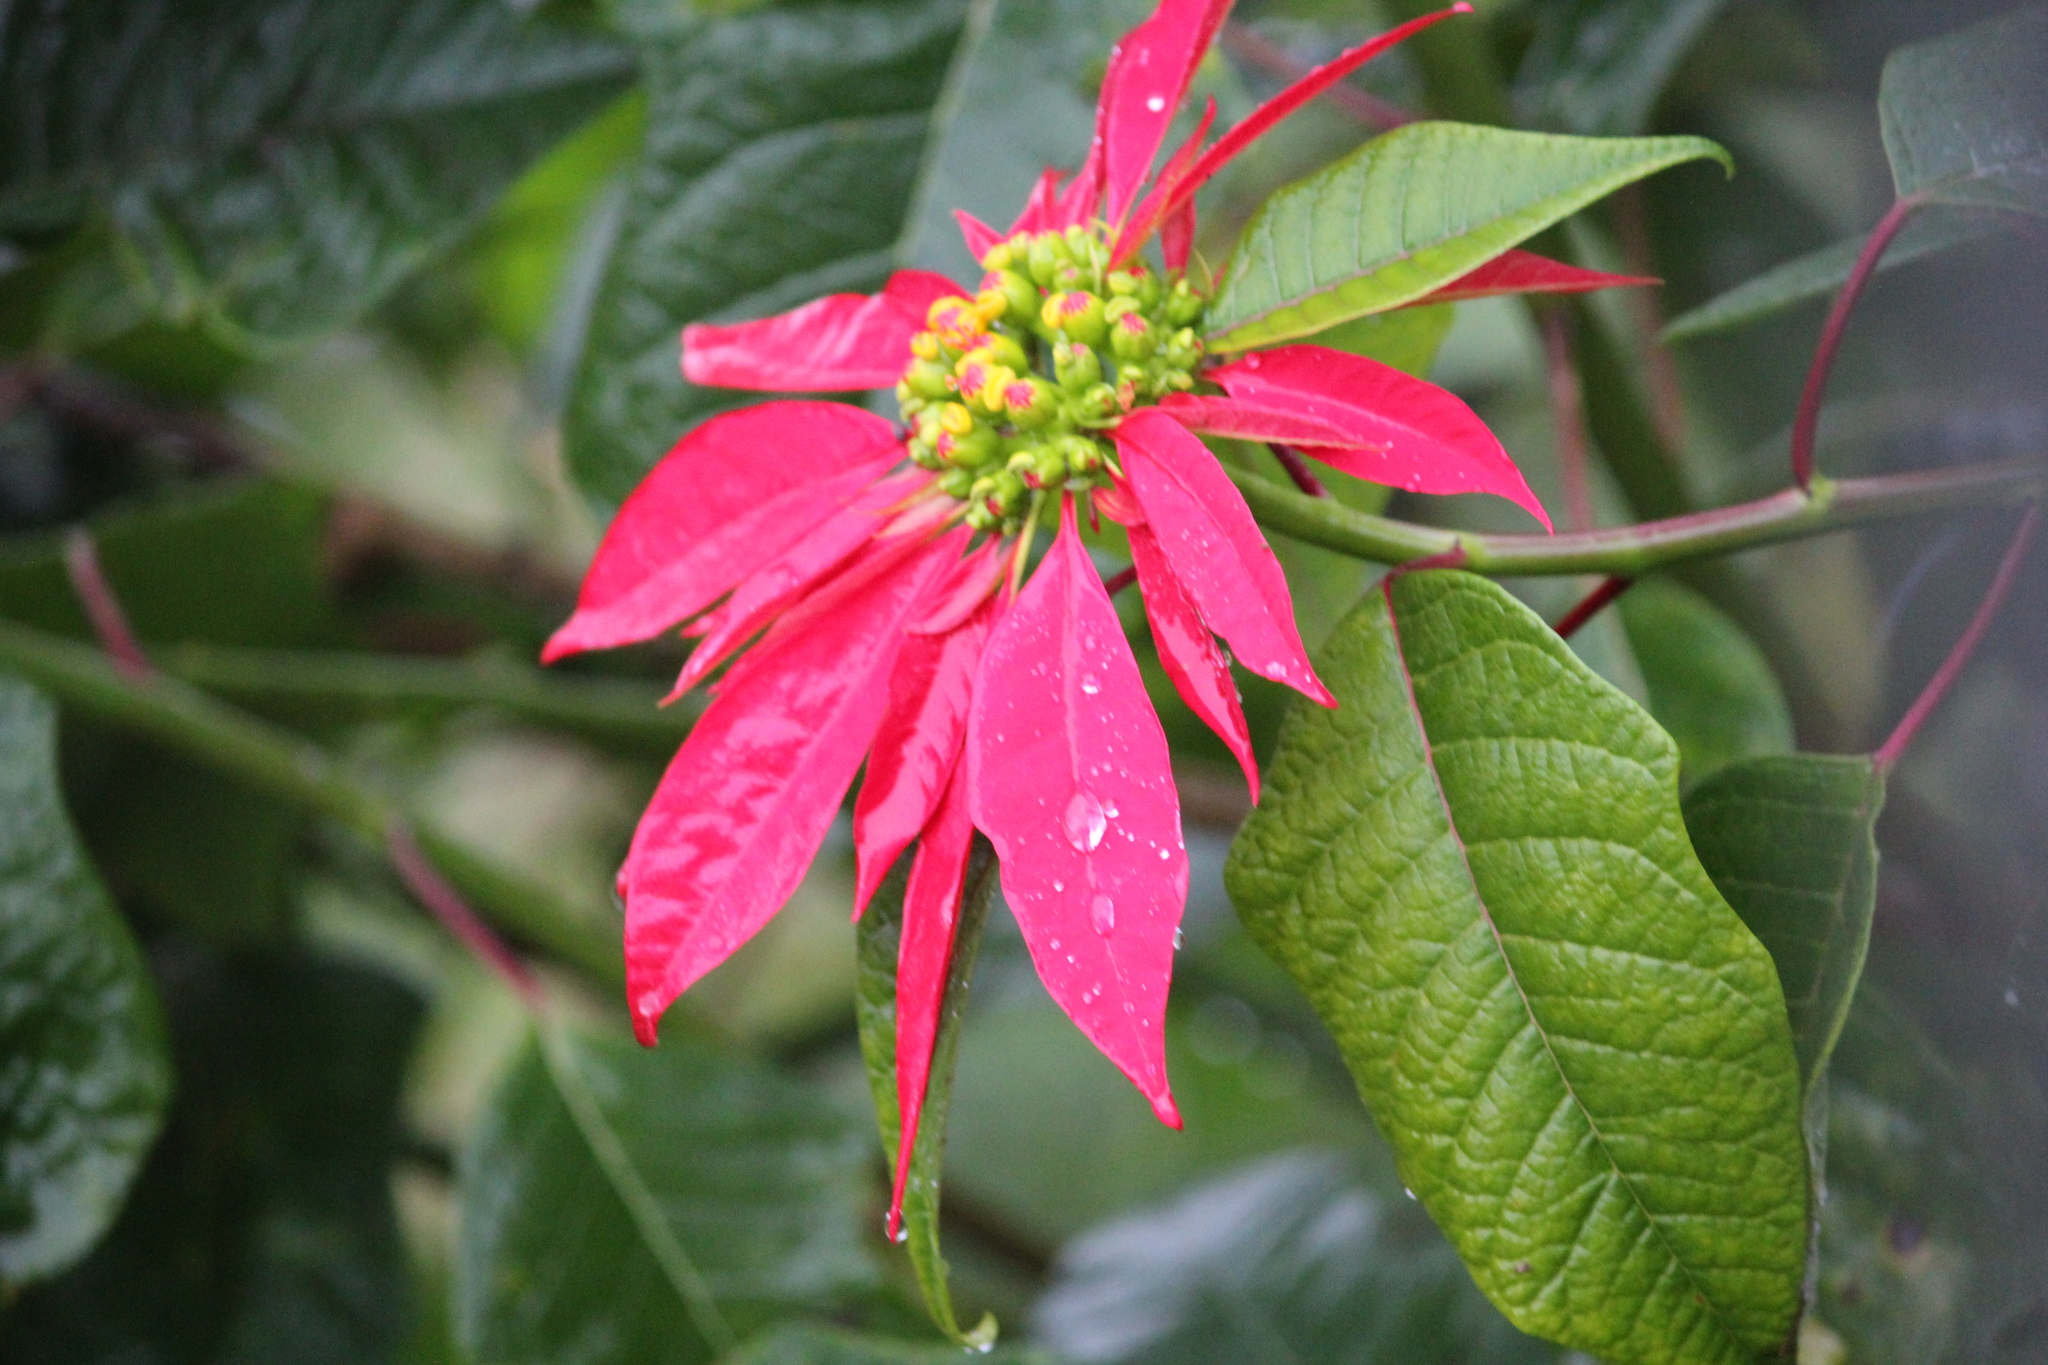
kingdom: Plantae
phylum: Tracheophyta
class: Magnoliopsida
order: Malpighiales
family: Euphorbiaceae
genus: Euphorbia
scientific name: Euphorbia pulcherrima
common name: Christmas-flower
